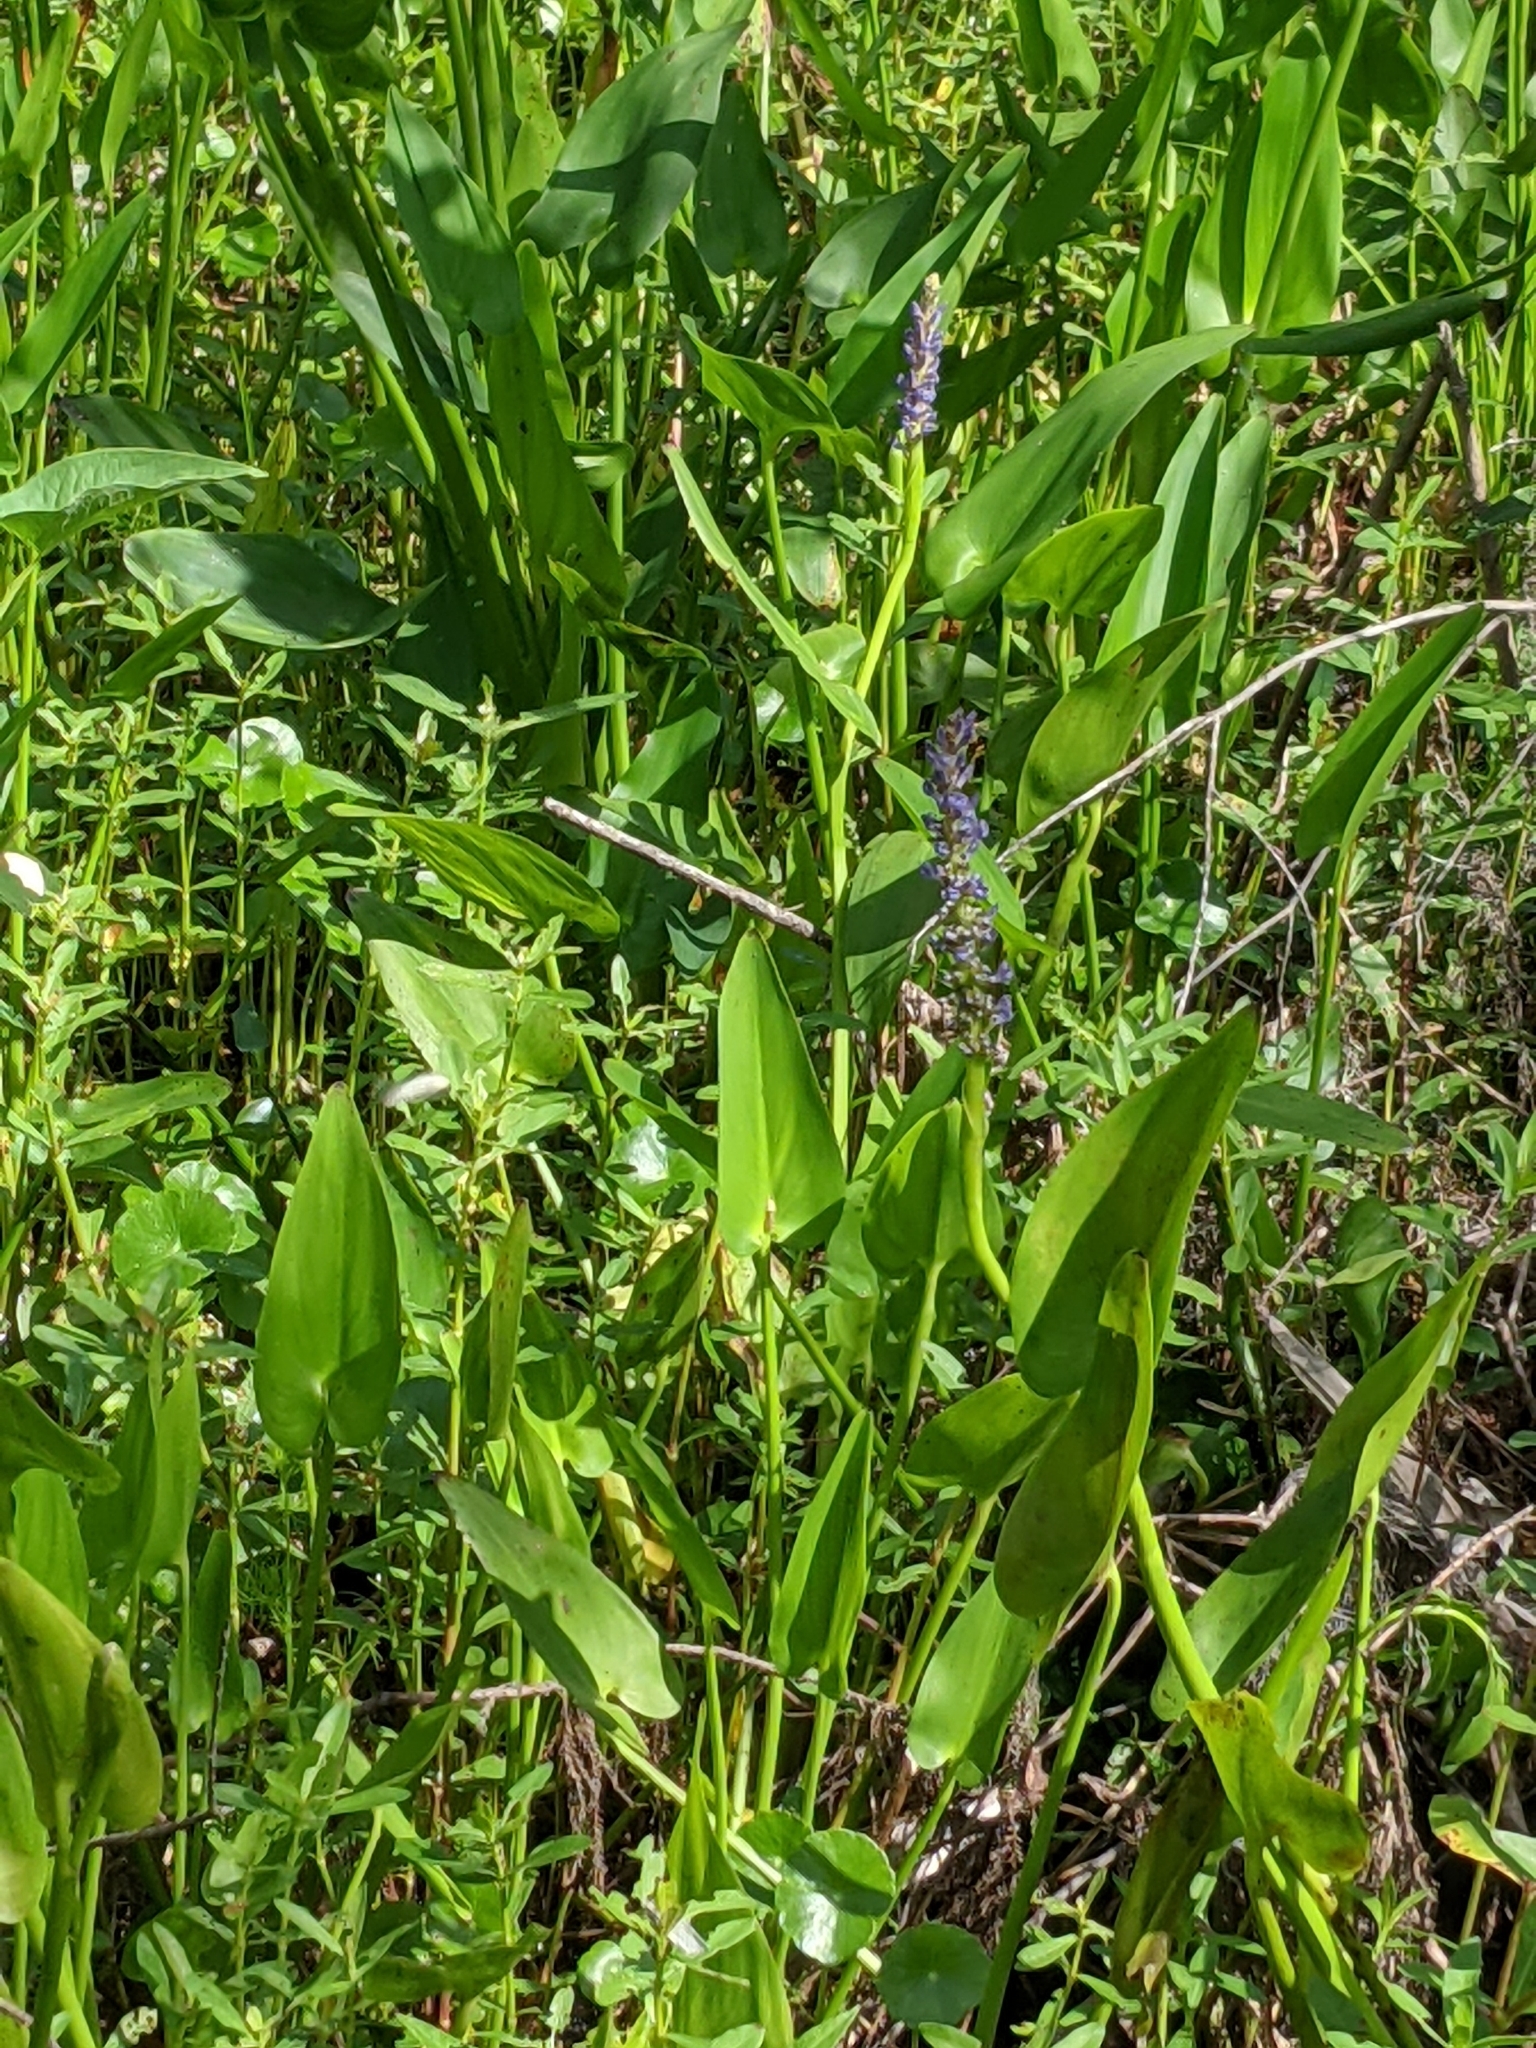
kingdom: Plantae
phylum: Tracheophyta
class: Liliopsida
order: Commelinales
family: Pontederiaceae
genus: Pontederia
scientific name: Pontederia cordata
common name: Pickerelweed
